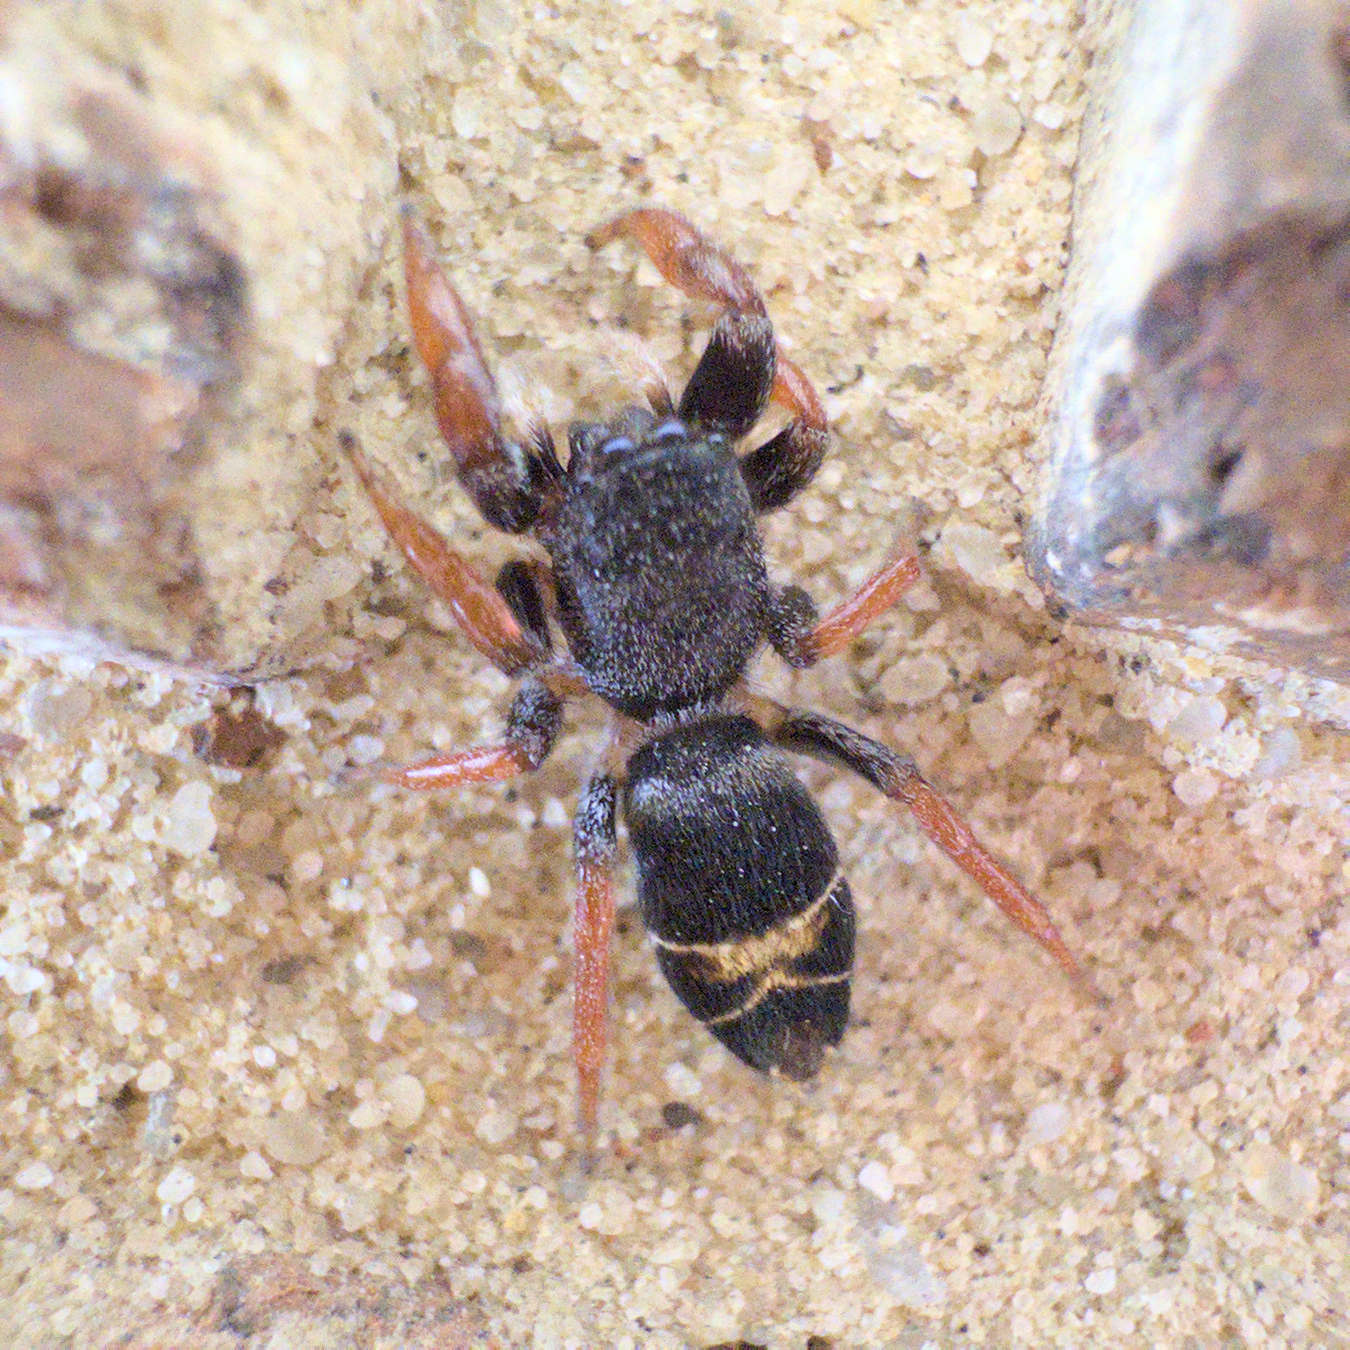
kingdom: Animalia
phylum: Arthropoda
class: Arachnida
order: Araneae
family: Salticidae
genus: Apricia
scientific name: Apricia jovialis
